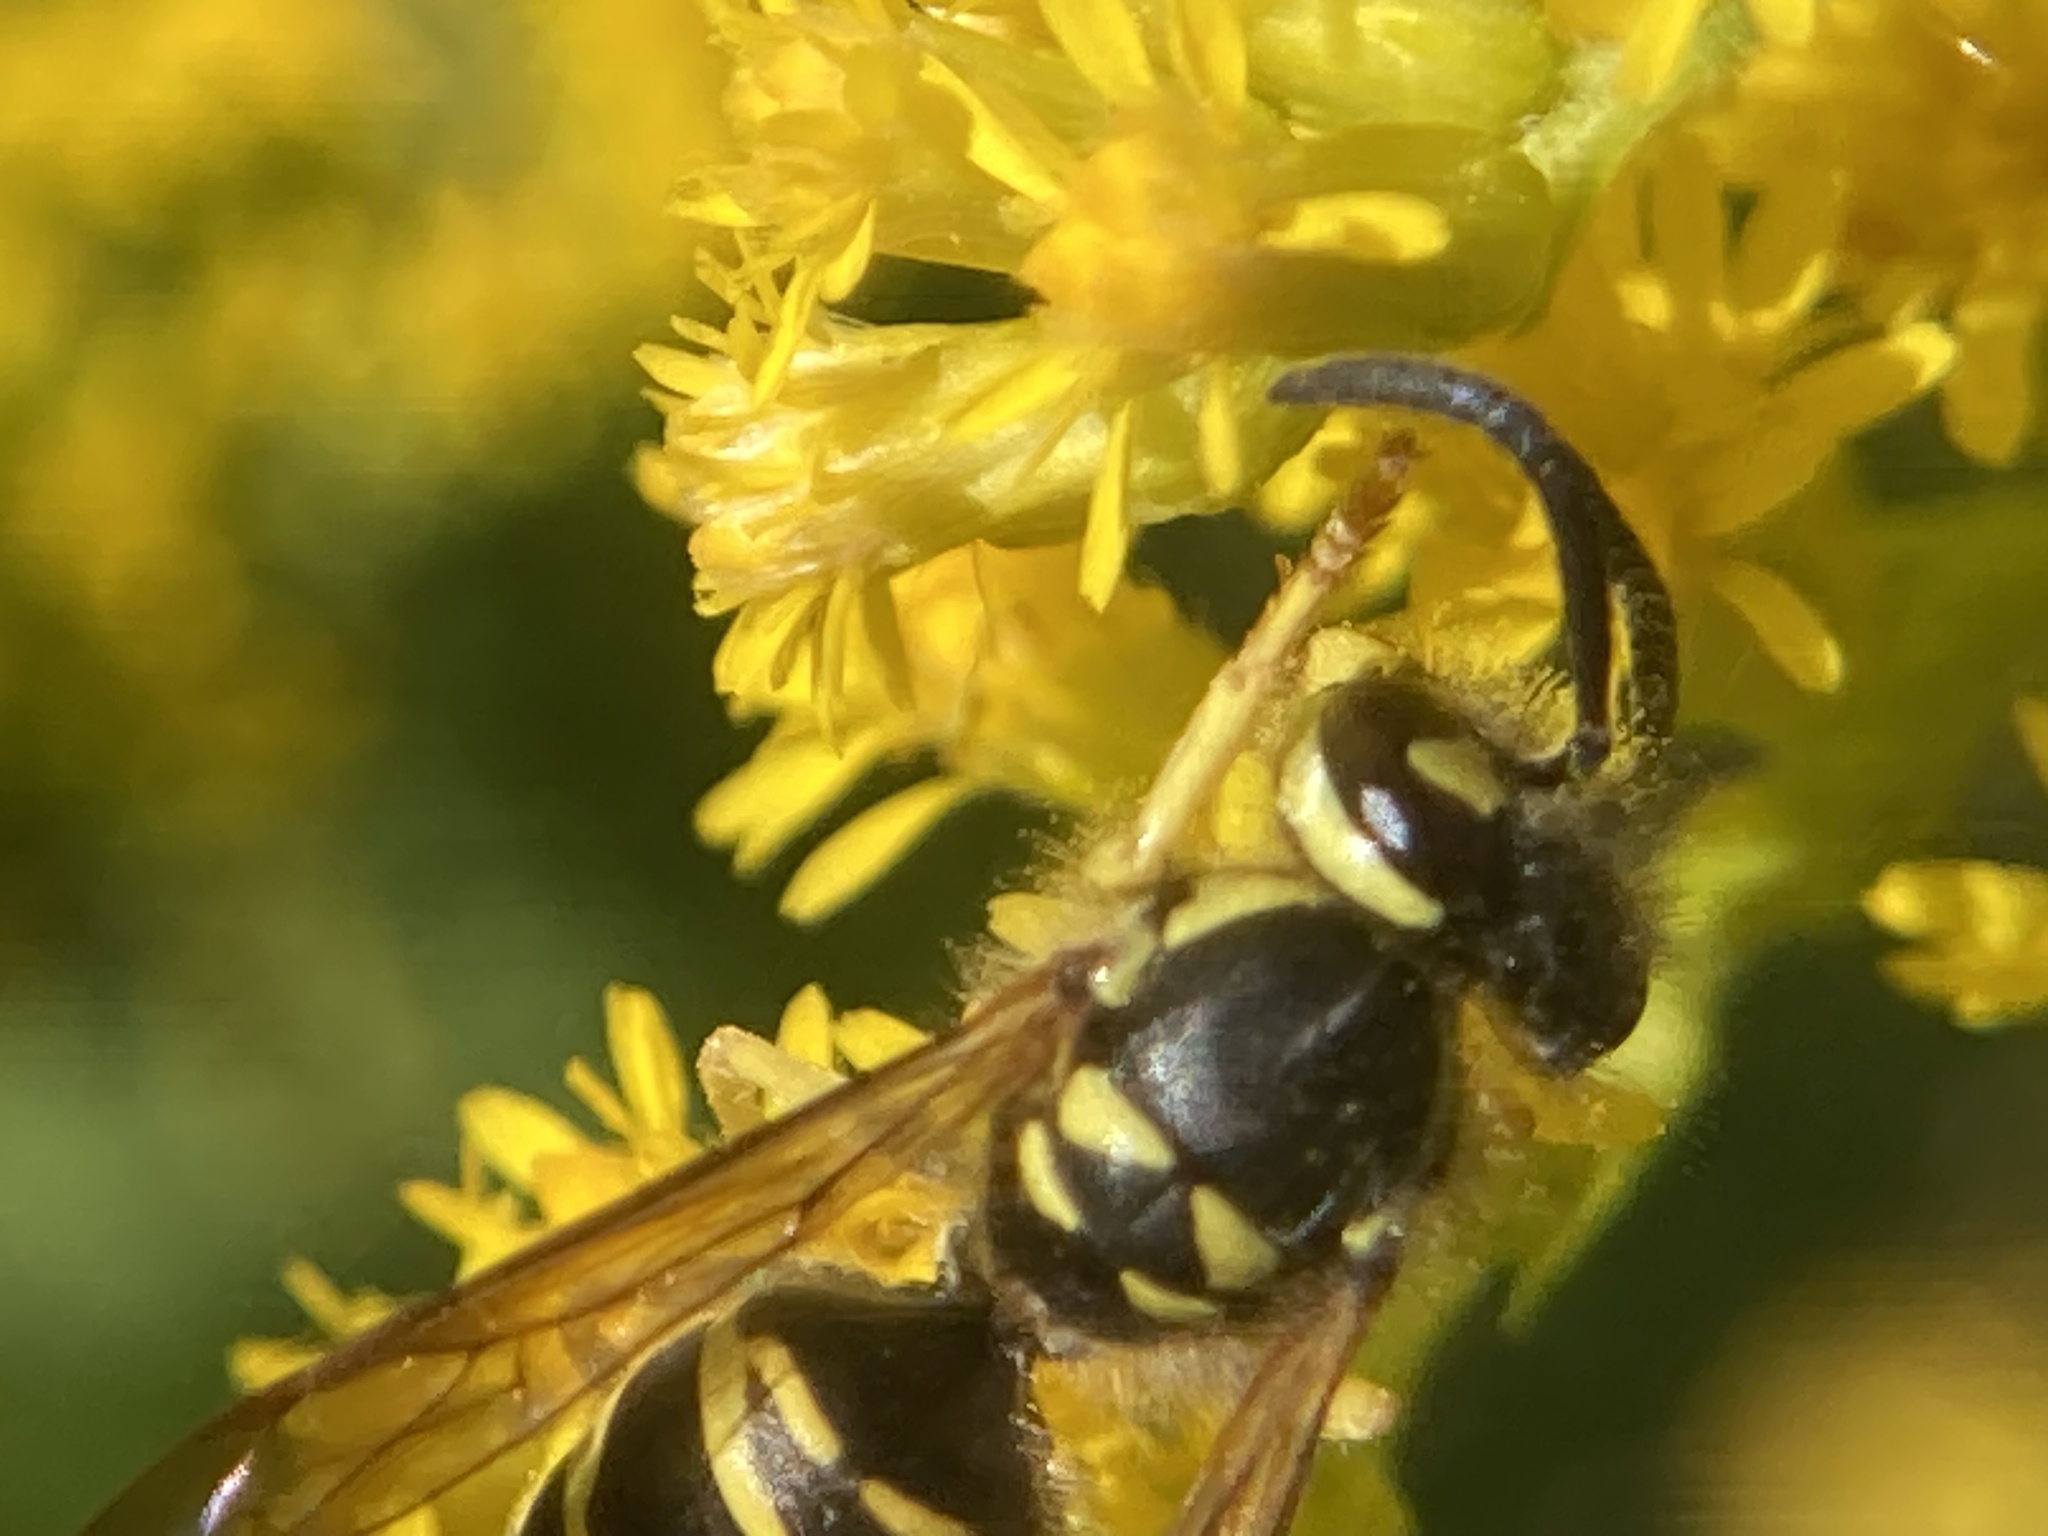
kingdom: Animalia
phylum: Arthropoda
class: Insecta
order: Hymenoptera
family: Vespidae
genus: Vespula
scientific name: Vespula maculifrons
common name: Eastern yellowjacket
